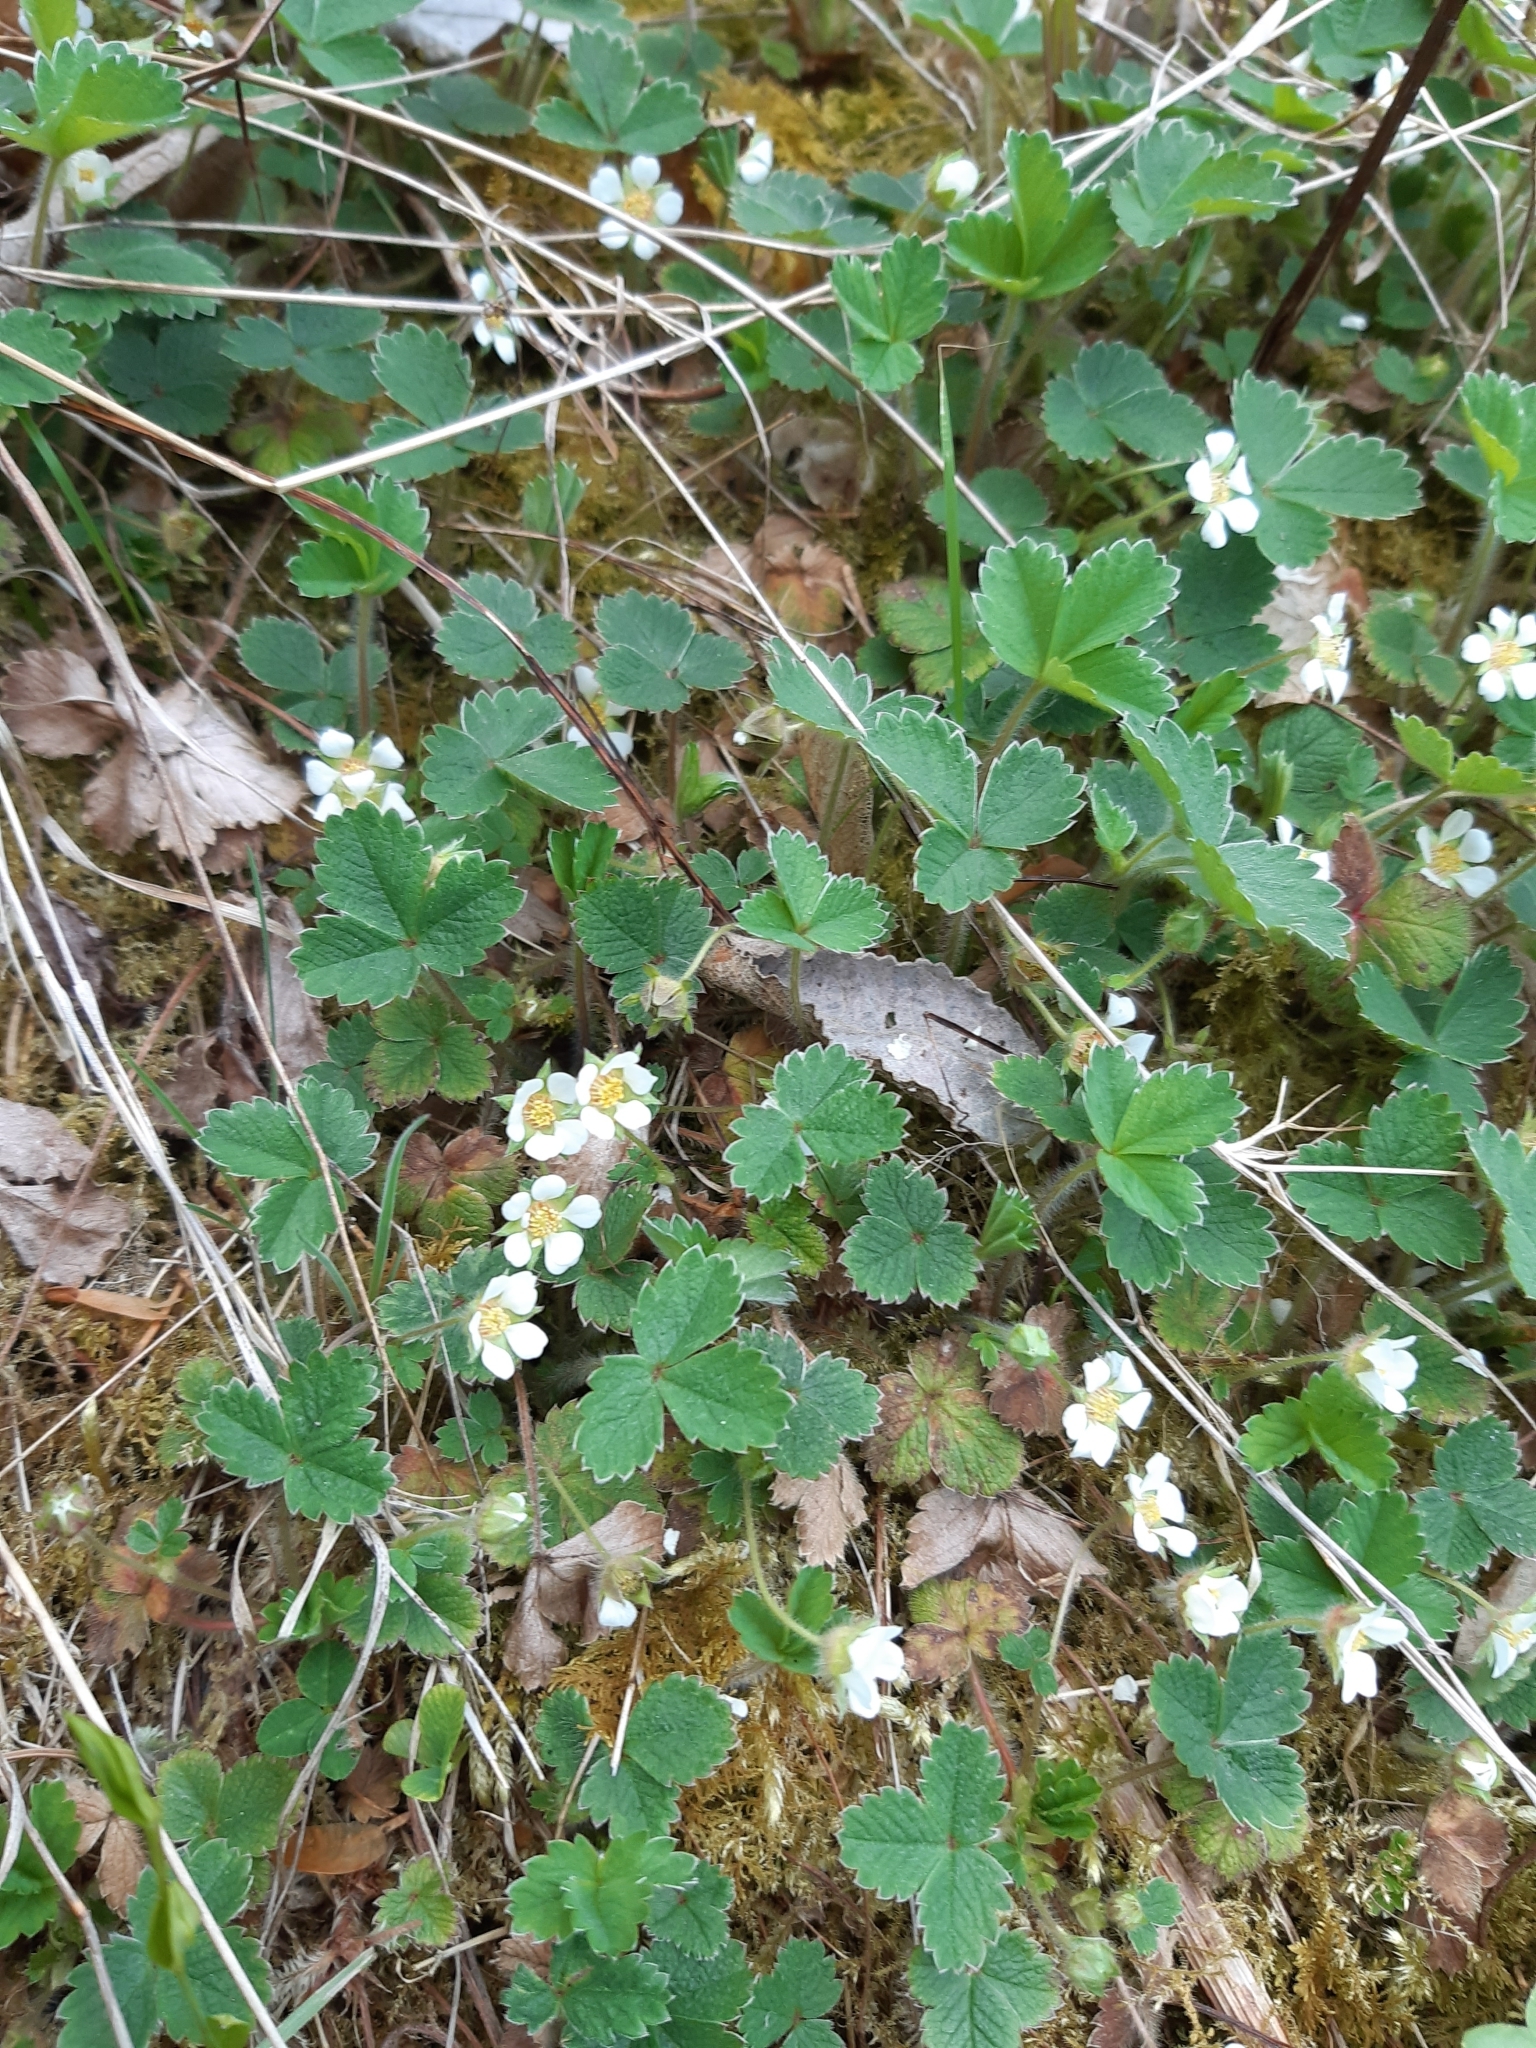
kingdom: Plantae
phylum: Tracheophyta
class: Magnoliopsida
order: Rosales
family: Rosaceae
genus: Potentilla
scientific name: Potentilla sterilis
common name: Barren strawberry
